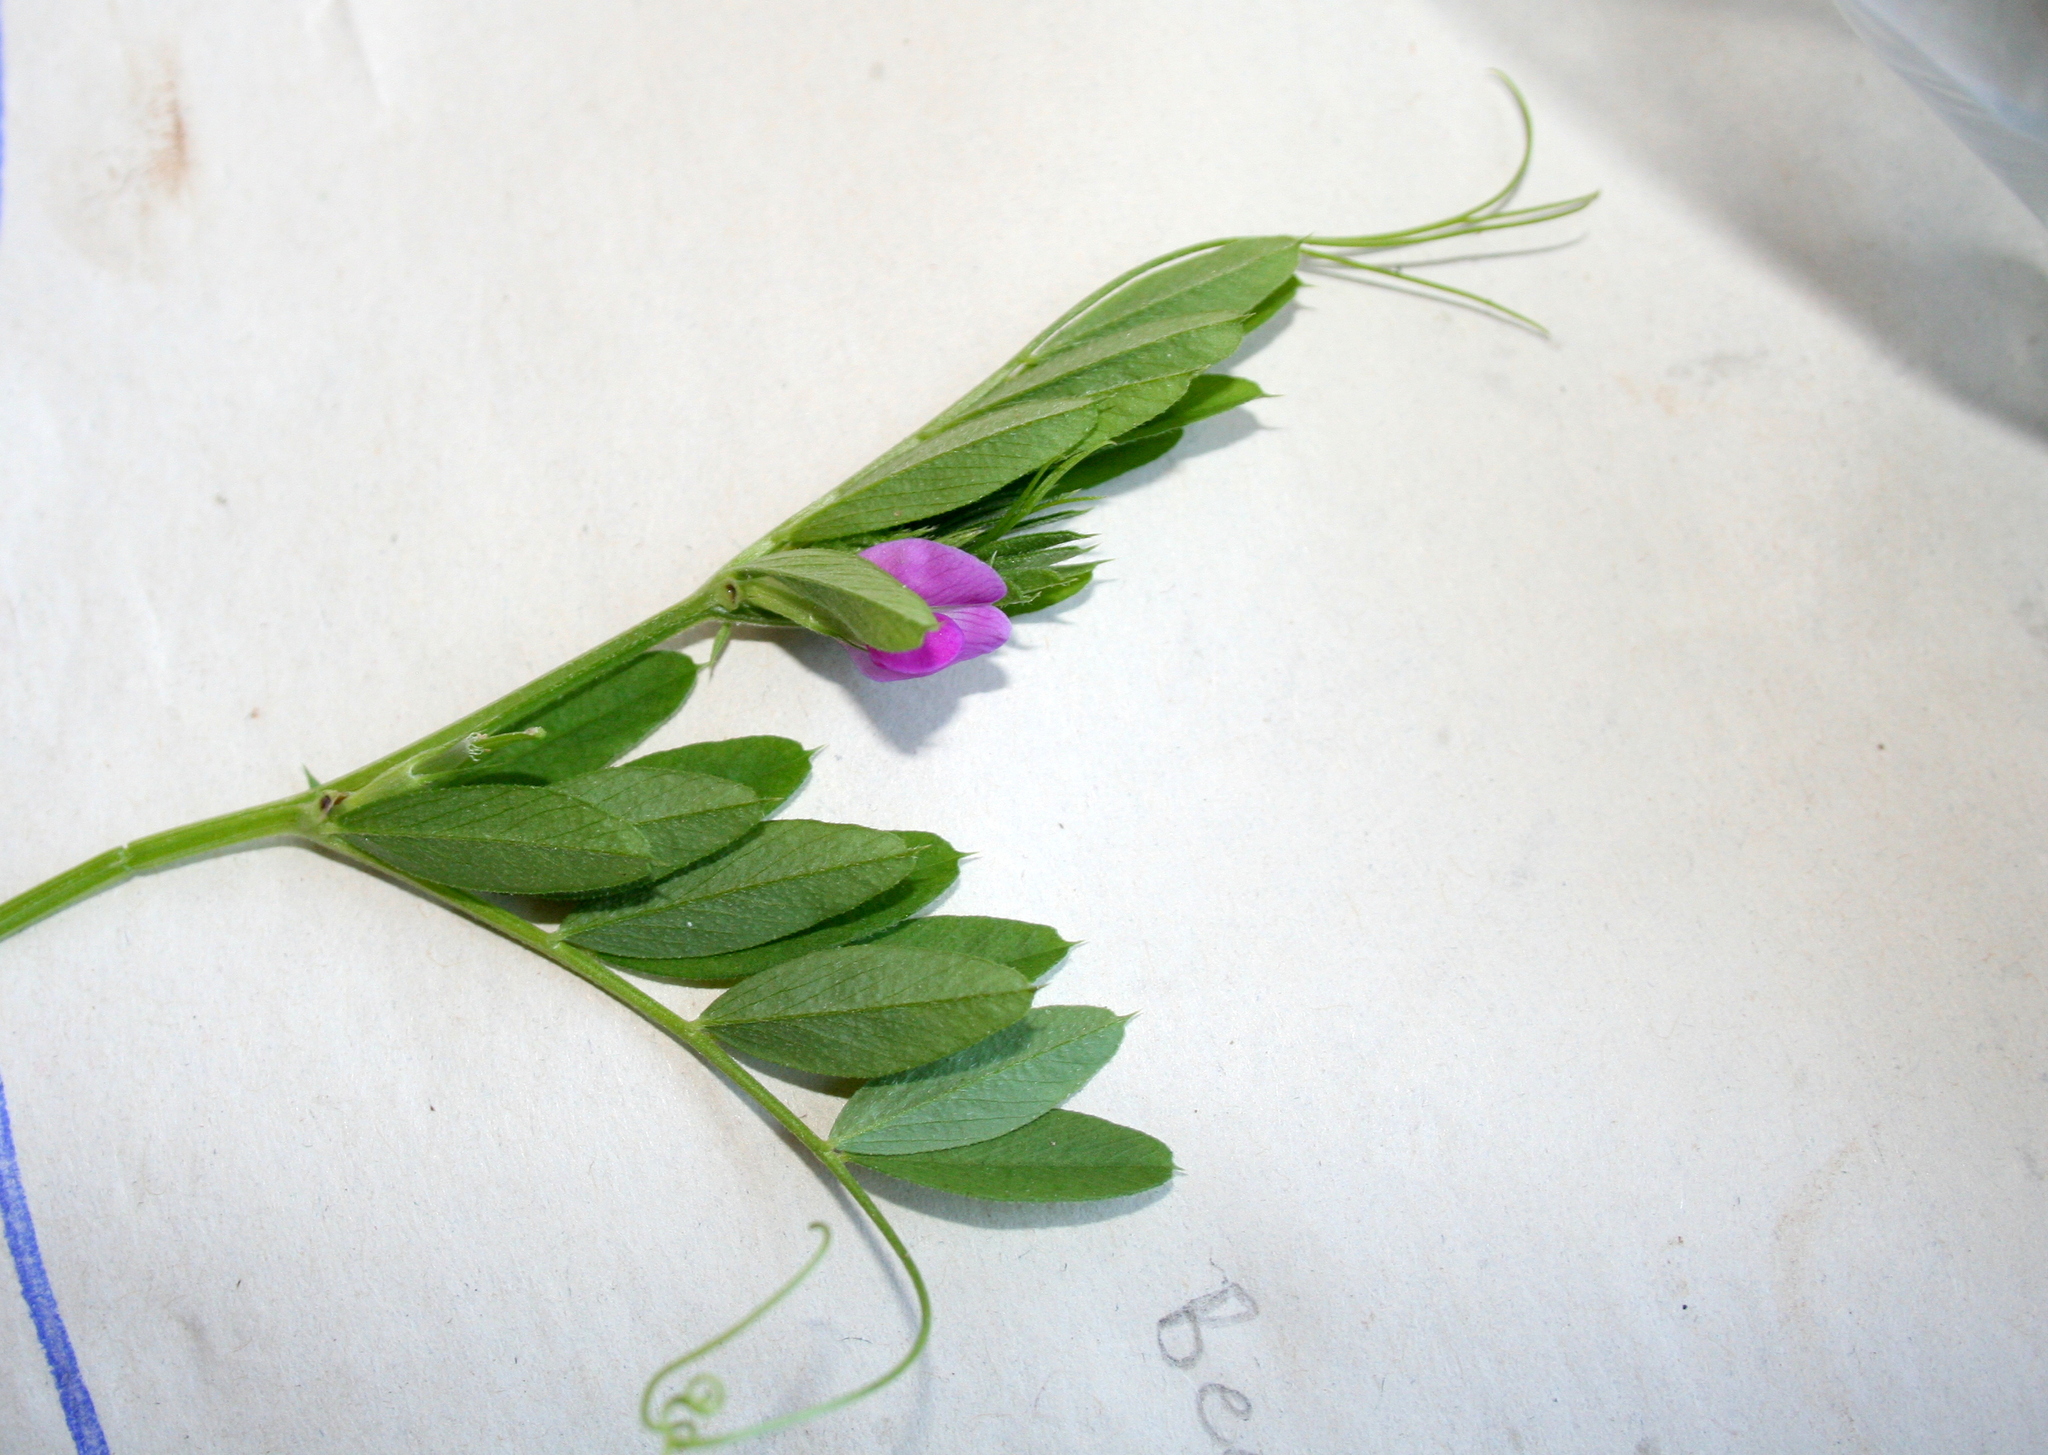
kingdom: Plantae
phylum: Tracheophyta
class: Magnoliopsida
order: Fabales
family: Fabaceae
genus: Vicia
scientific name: Vicia sativa
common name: Garden vetch
